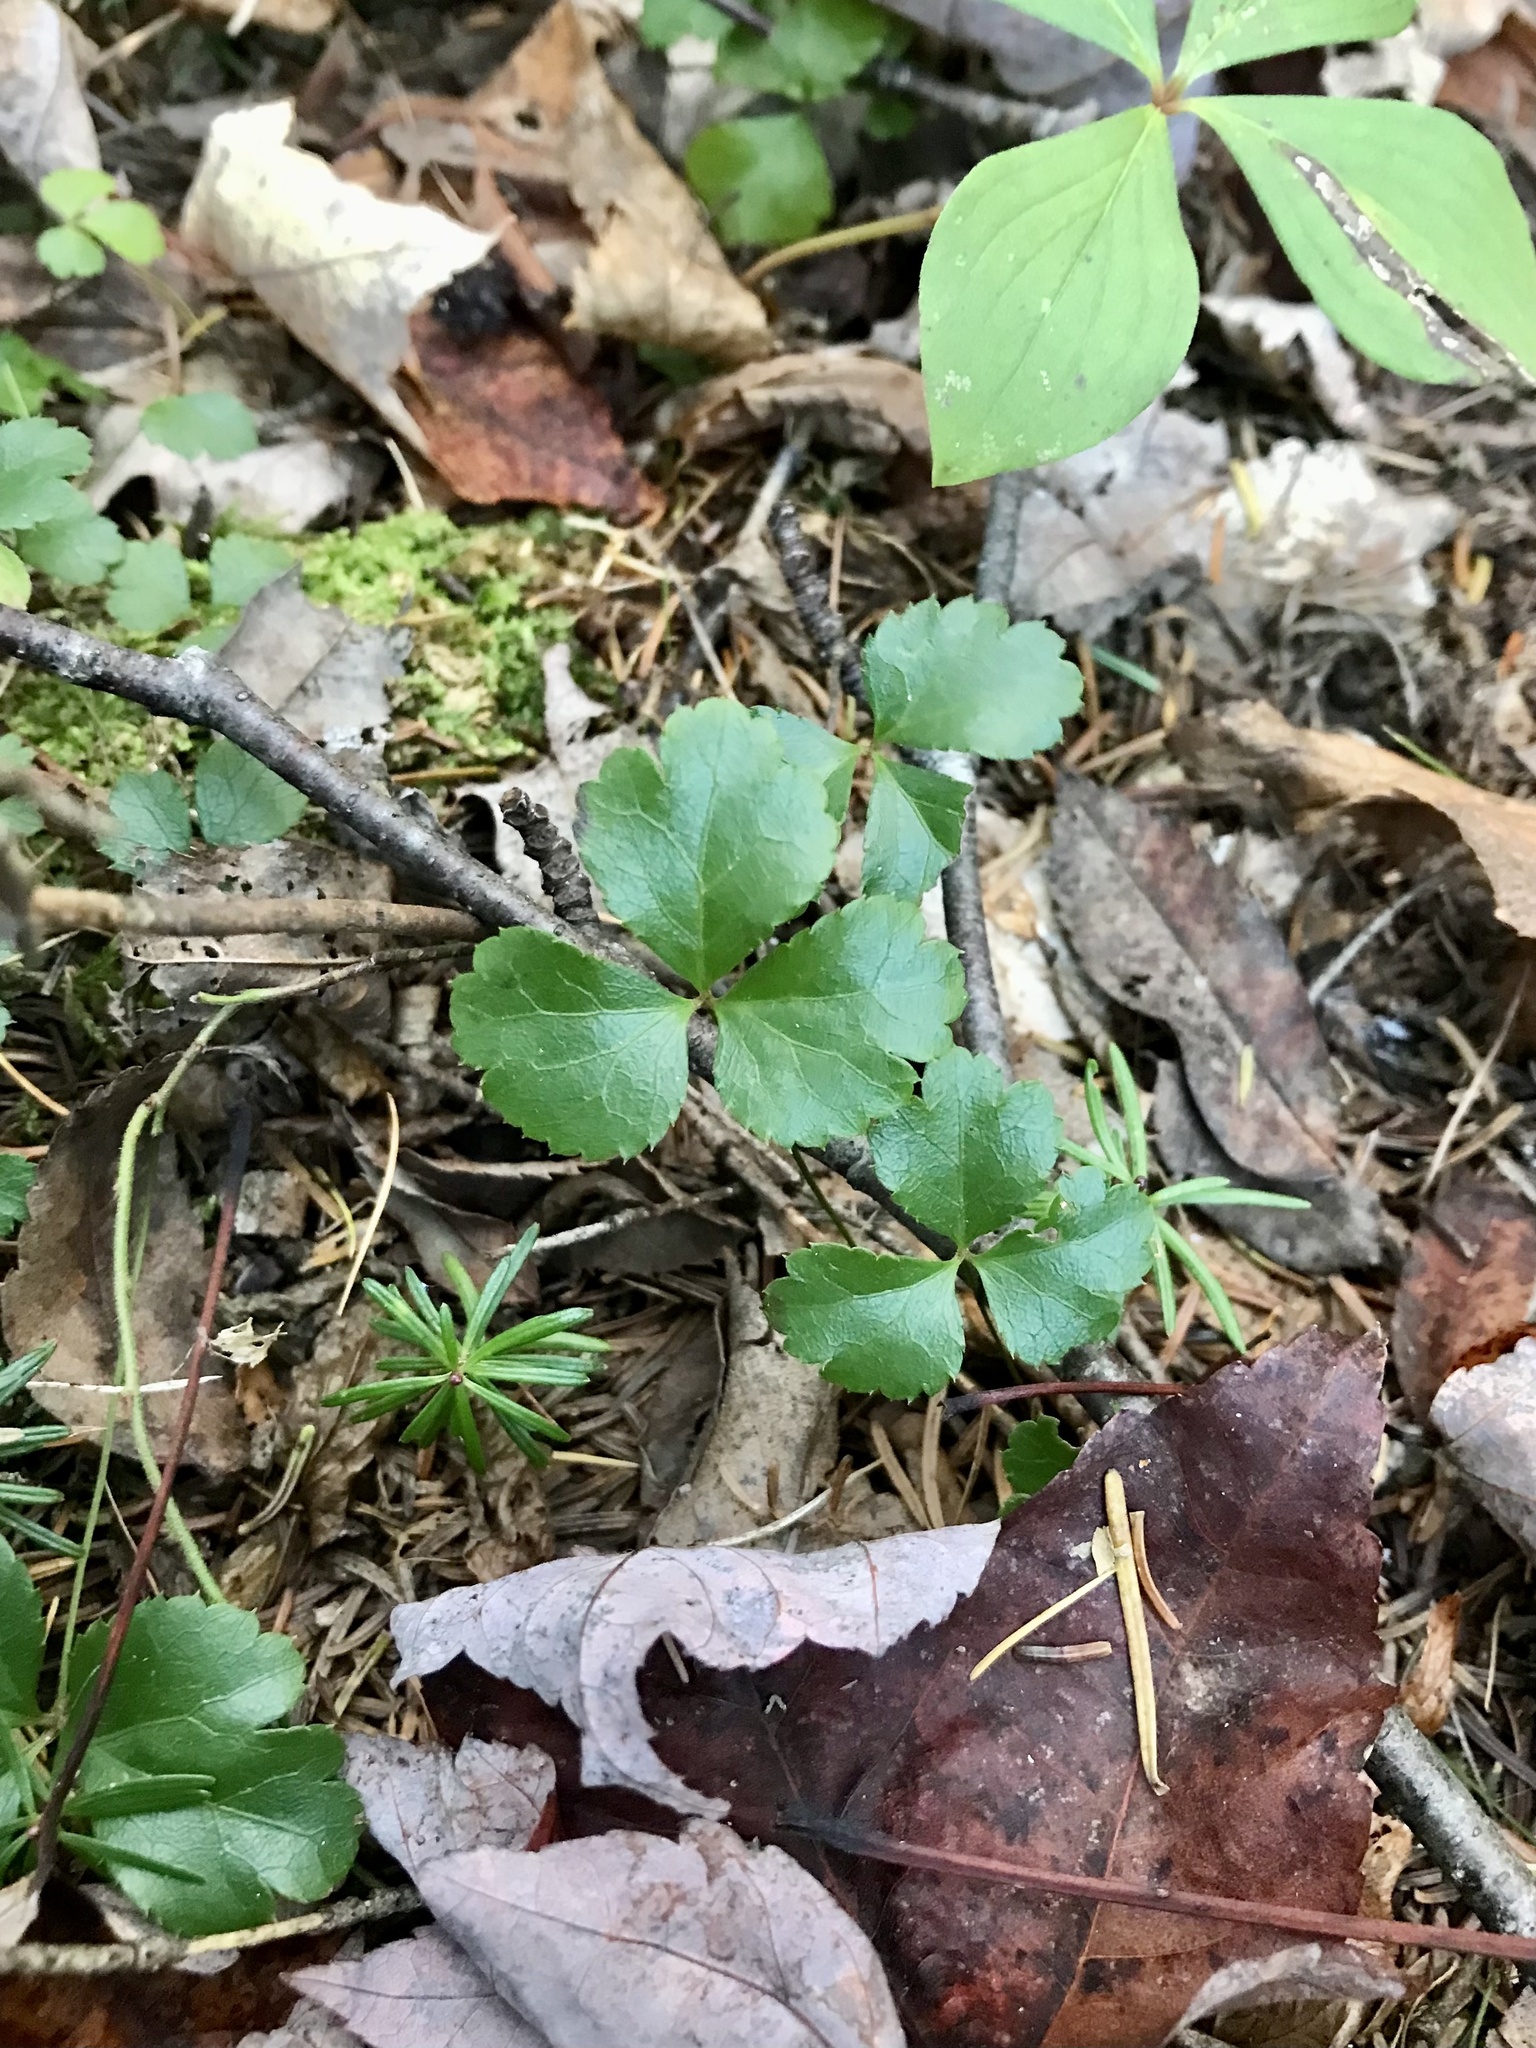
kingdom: Plantae
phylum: Tracheophyta
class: Magnoliopsida
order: Ranunculales
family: Ranunculaceae
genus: Coptis
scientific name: Coptis trifolia
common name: Canker-root
